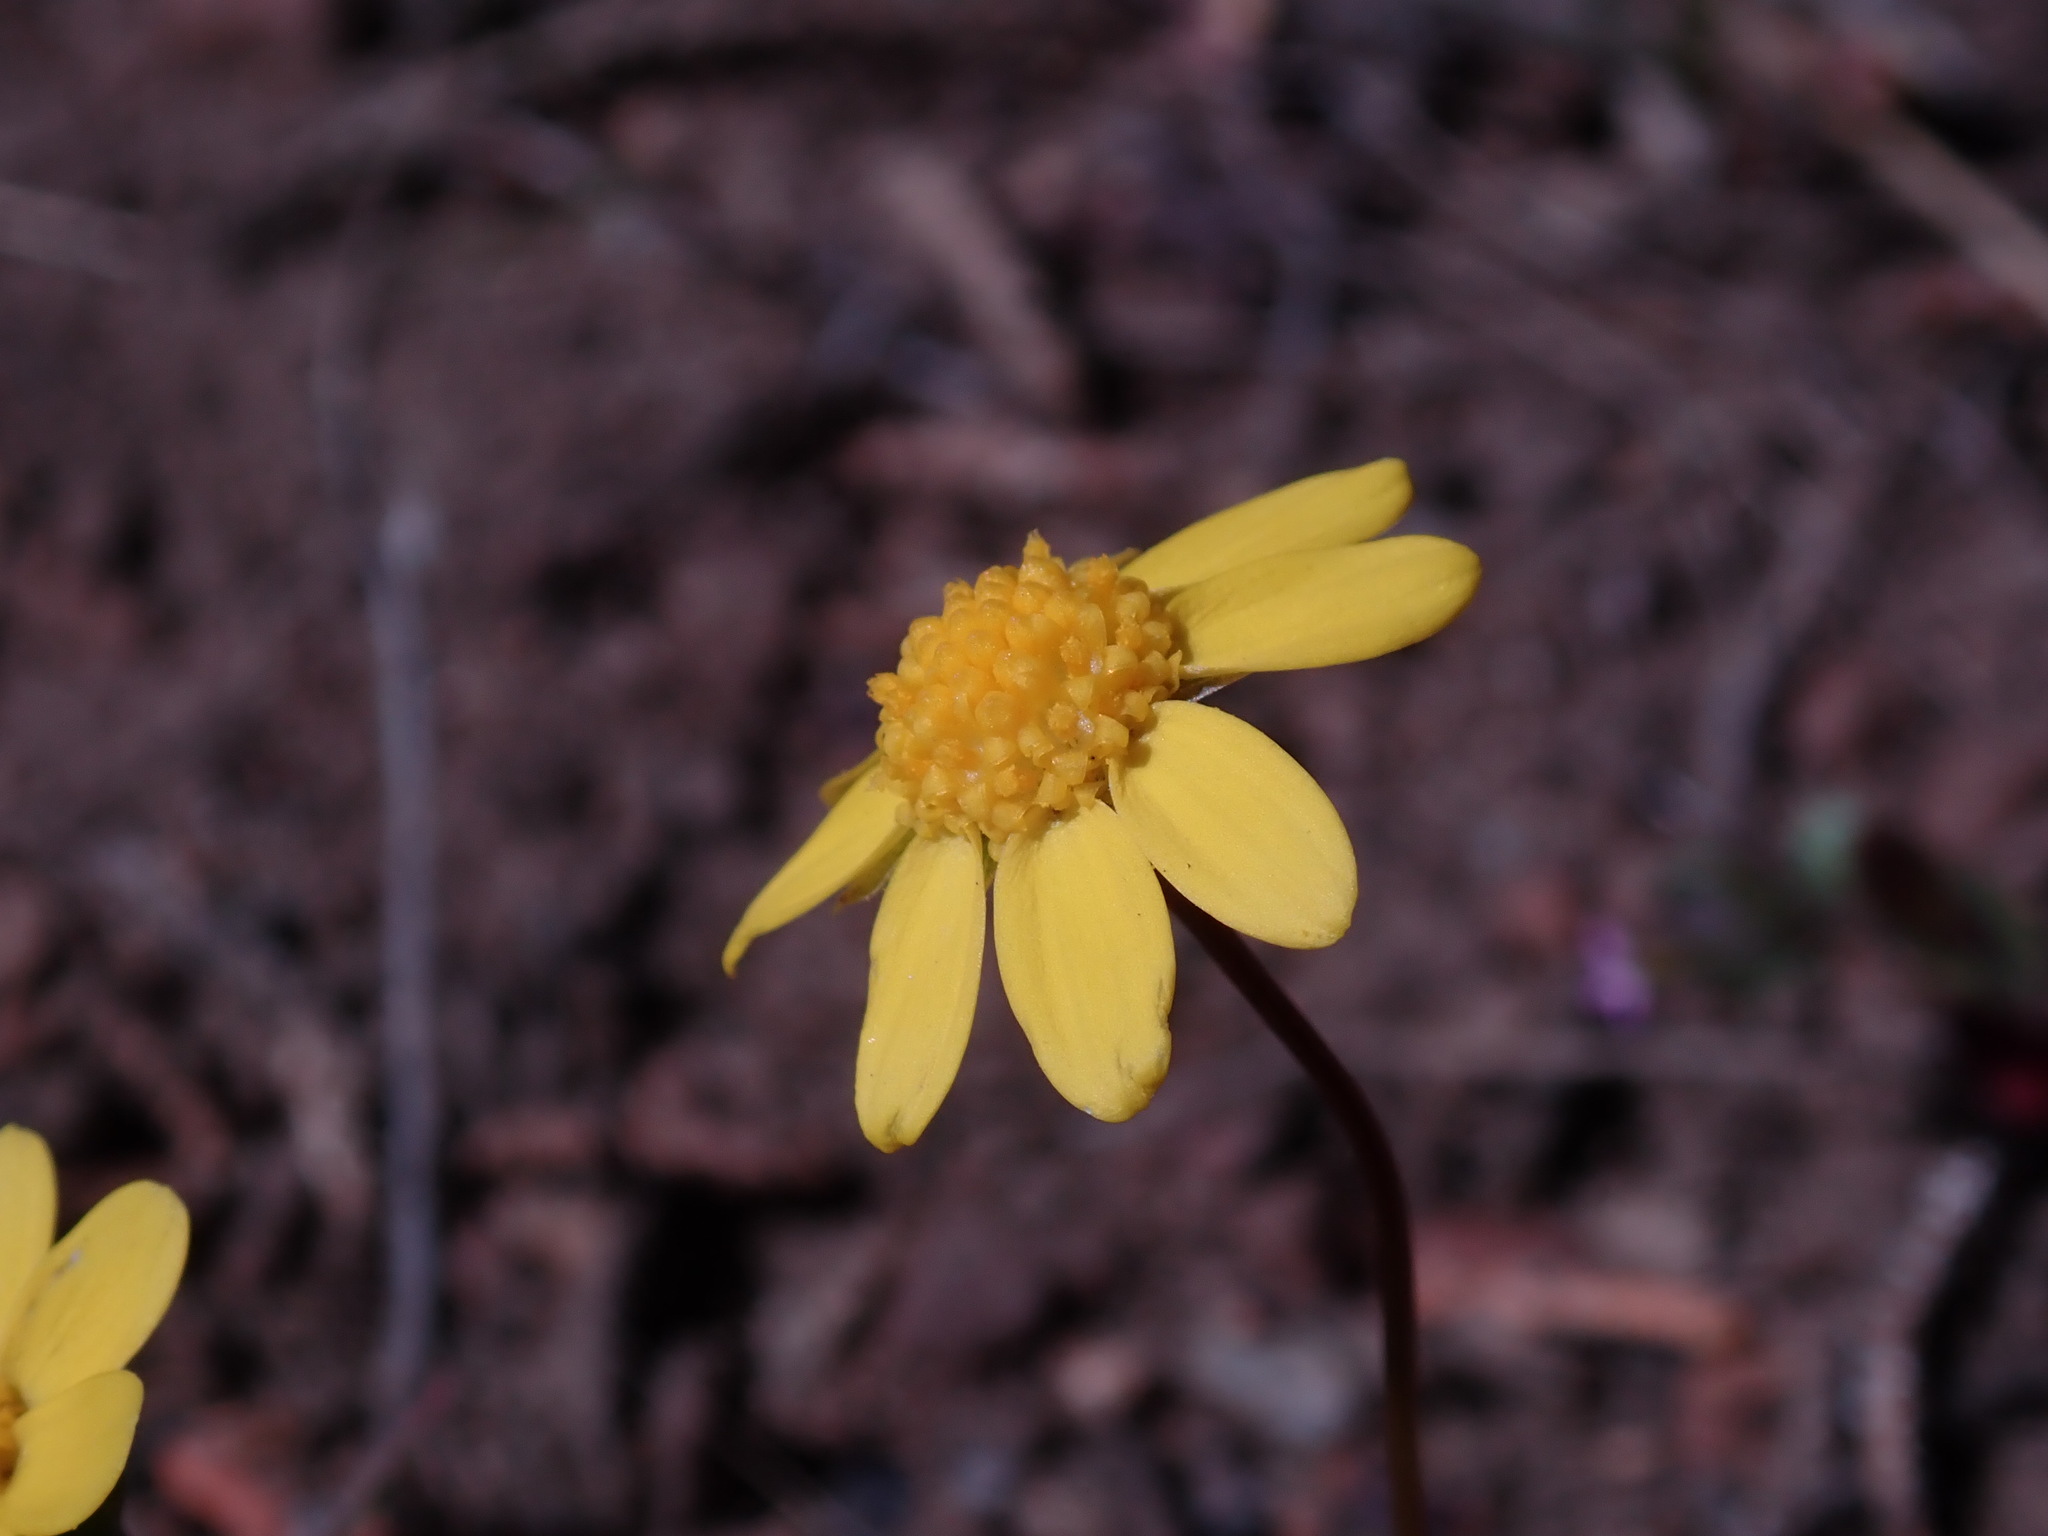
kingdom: Plantae
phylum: Tracheophyta
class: Magnoliopsida
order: Asterales
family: Asteraceae
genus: Crocidium
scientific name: Crocidium multicaule
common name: Common spring gold
